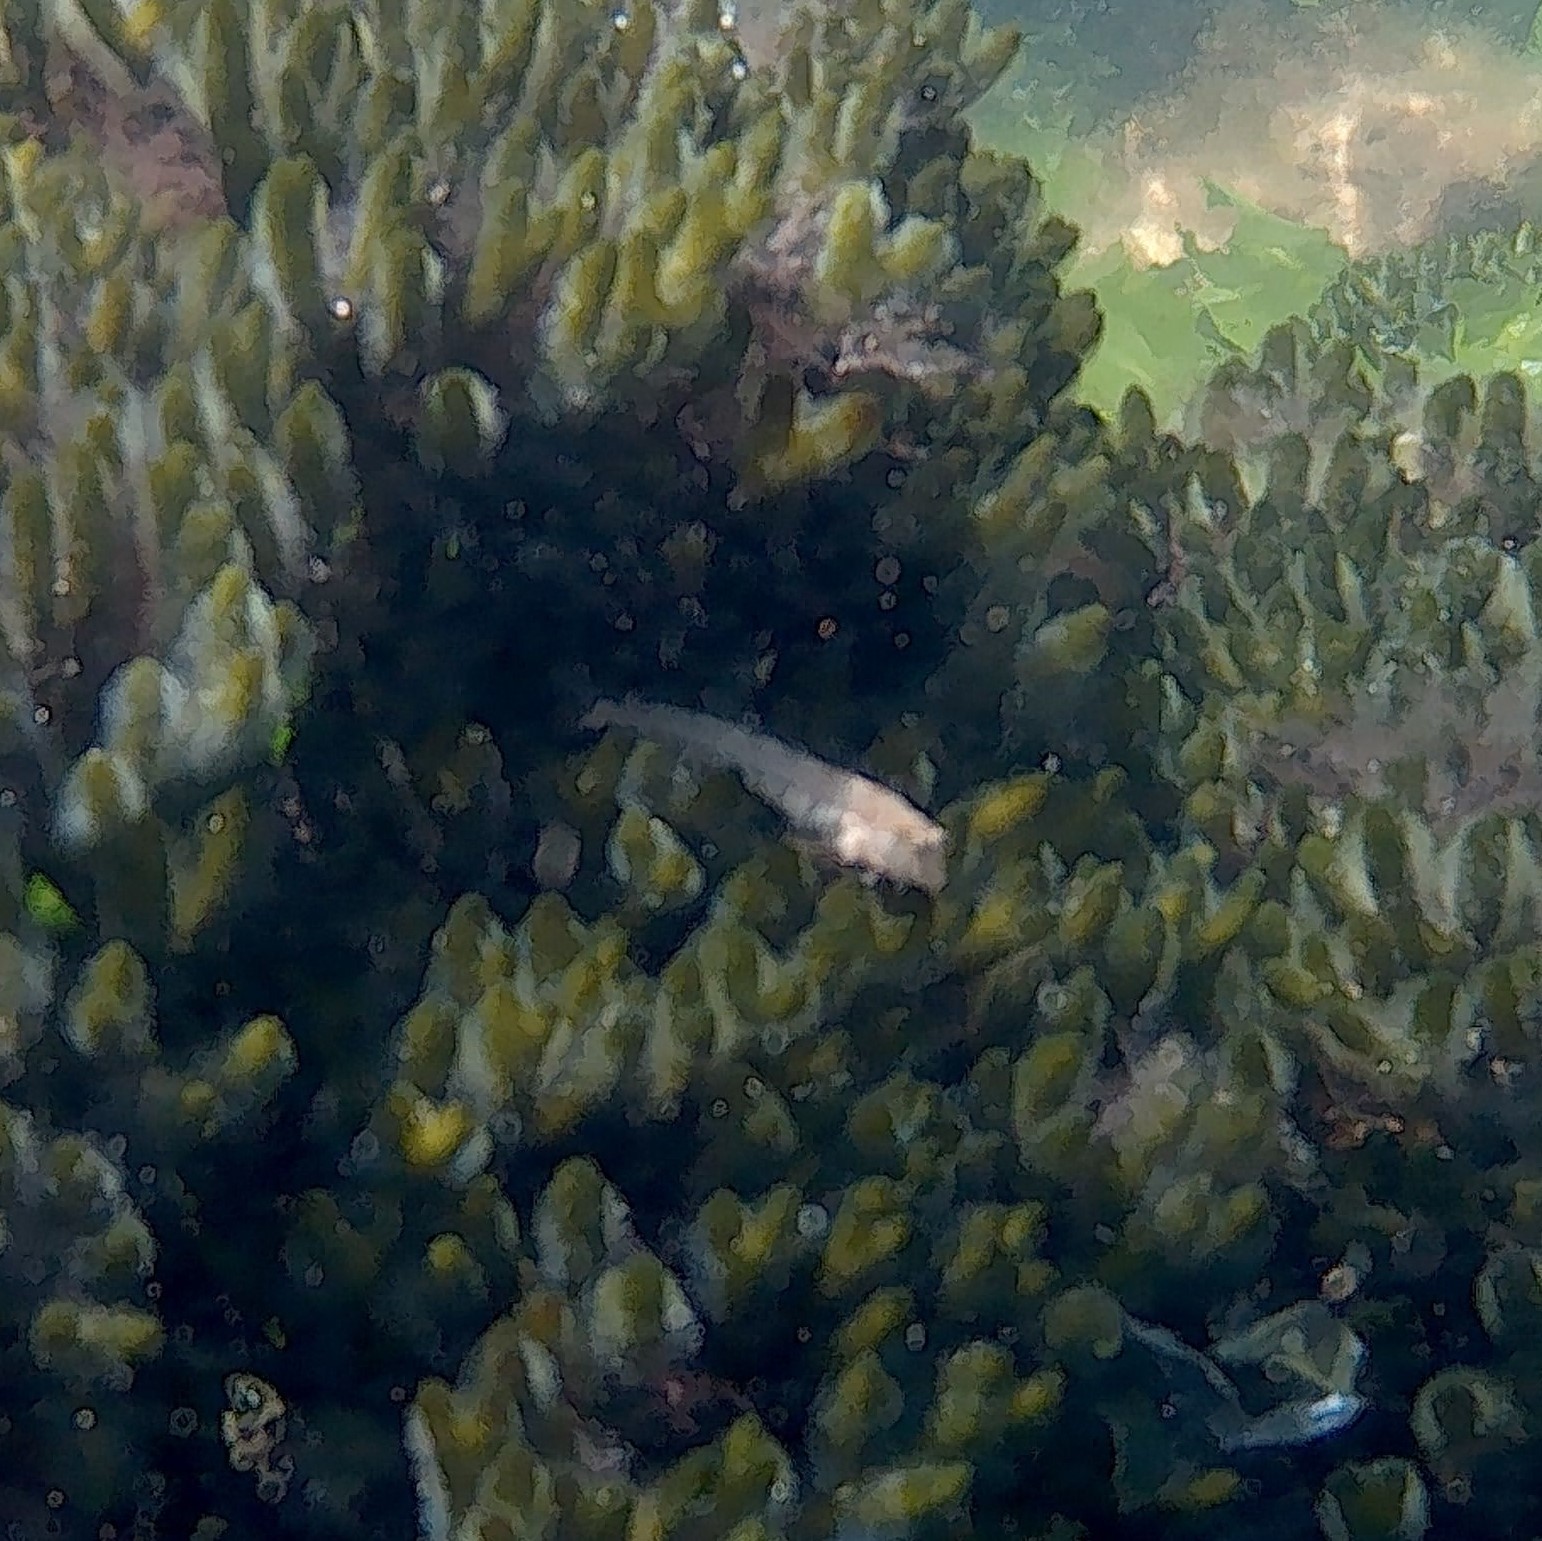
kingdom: Animalia
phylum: Chordata
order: Perciformes
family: Blenniidae
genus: Microlipophrys
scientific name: Microlipophrys dalmatinus
